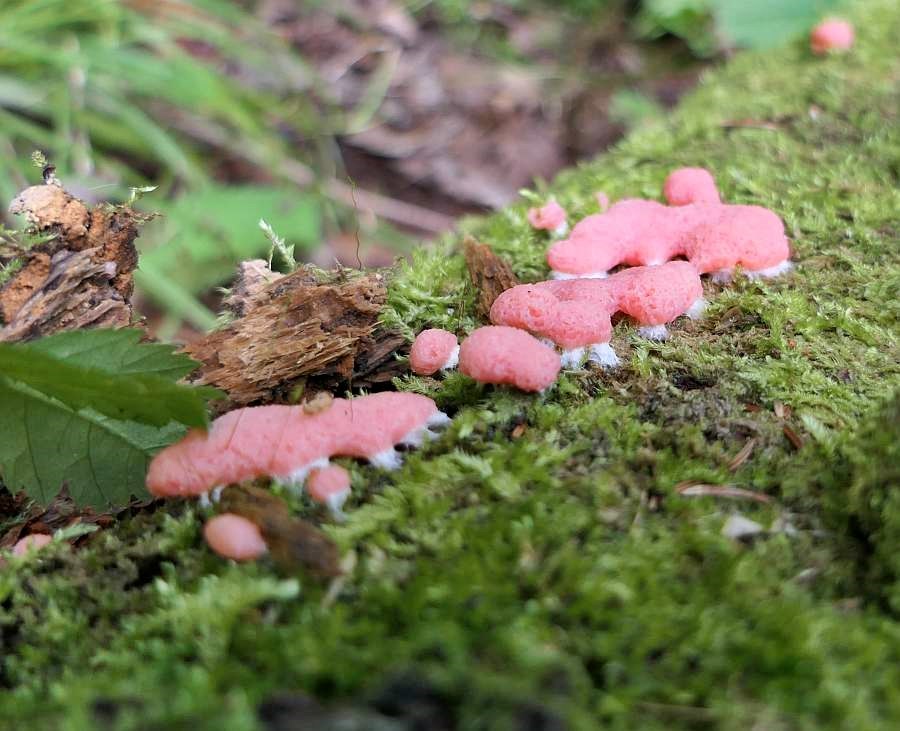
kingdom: Protozoa
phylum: Mycetozoa
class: Myxomycetes
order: Cribrariales
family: Tubiferaceae
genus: Tubifera
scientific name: Tubifera microsperma
